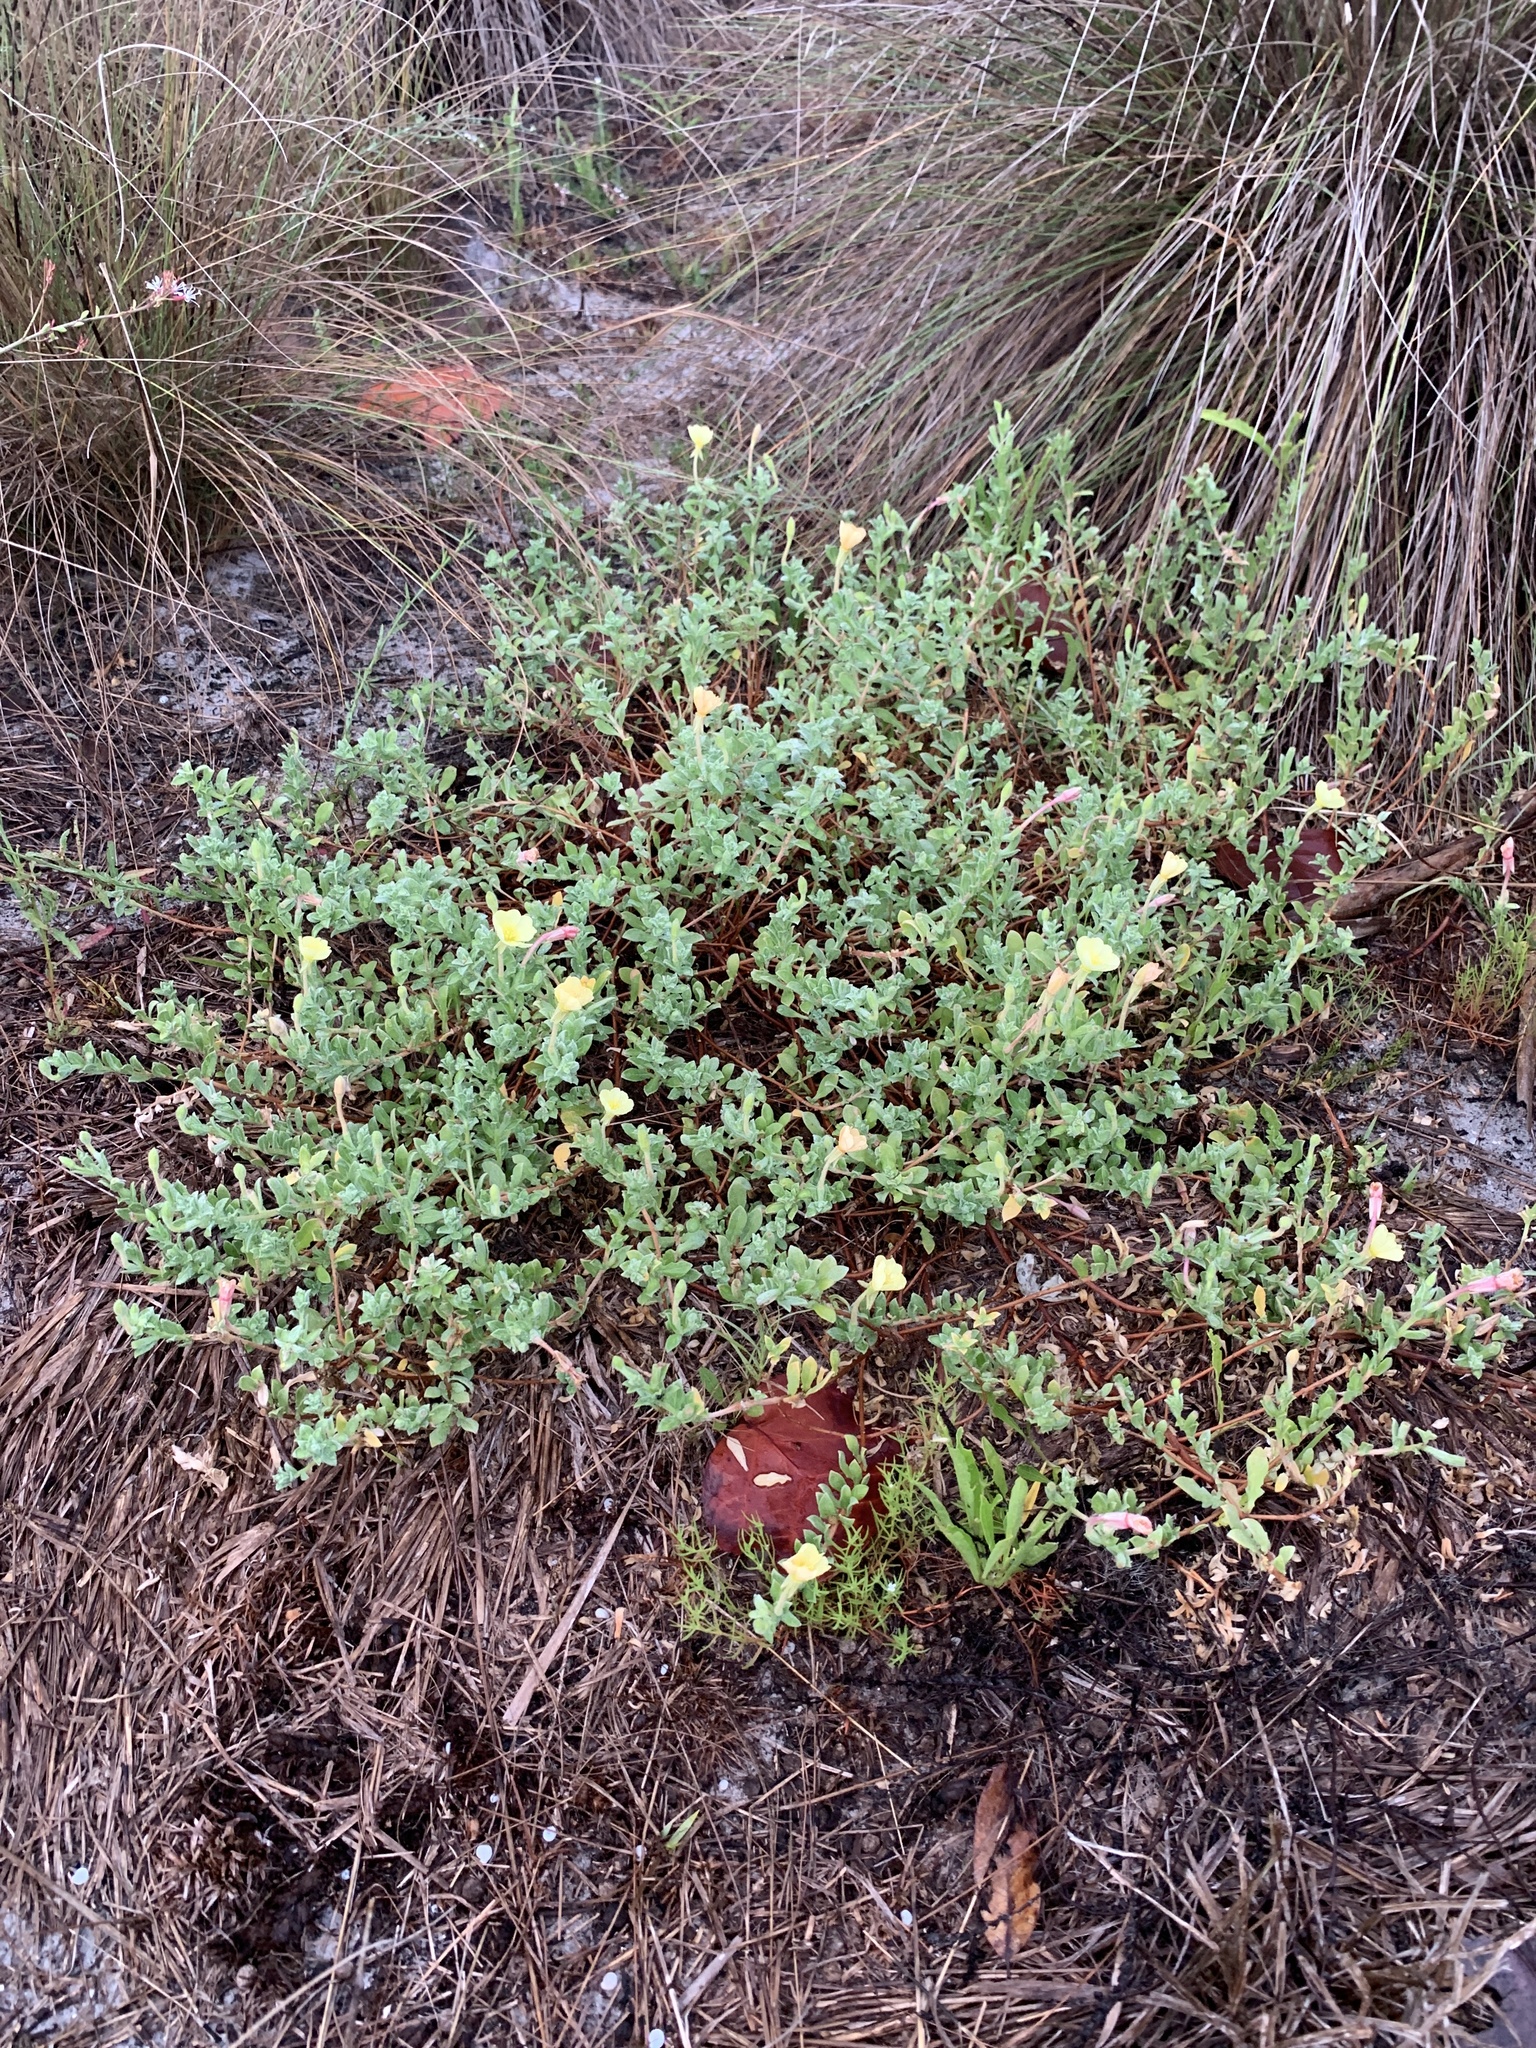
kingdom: Plantae
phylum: Tracheophyta
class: Magnoliopsida
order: Myrtales
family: Onagraceae
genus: Oenothera
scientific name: Oenothera humifusa
